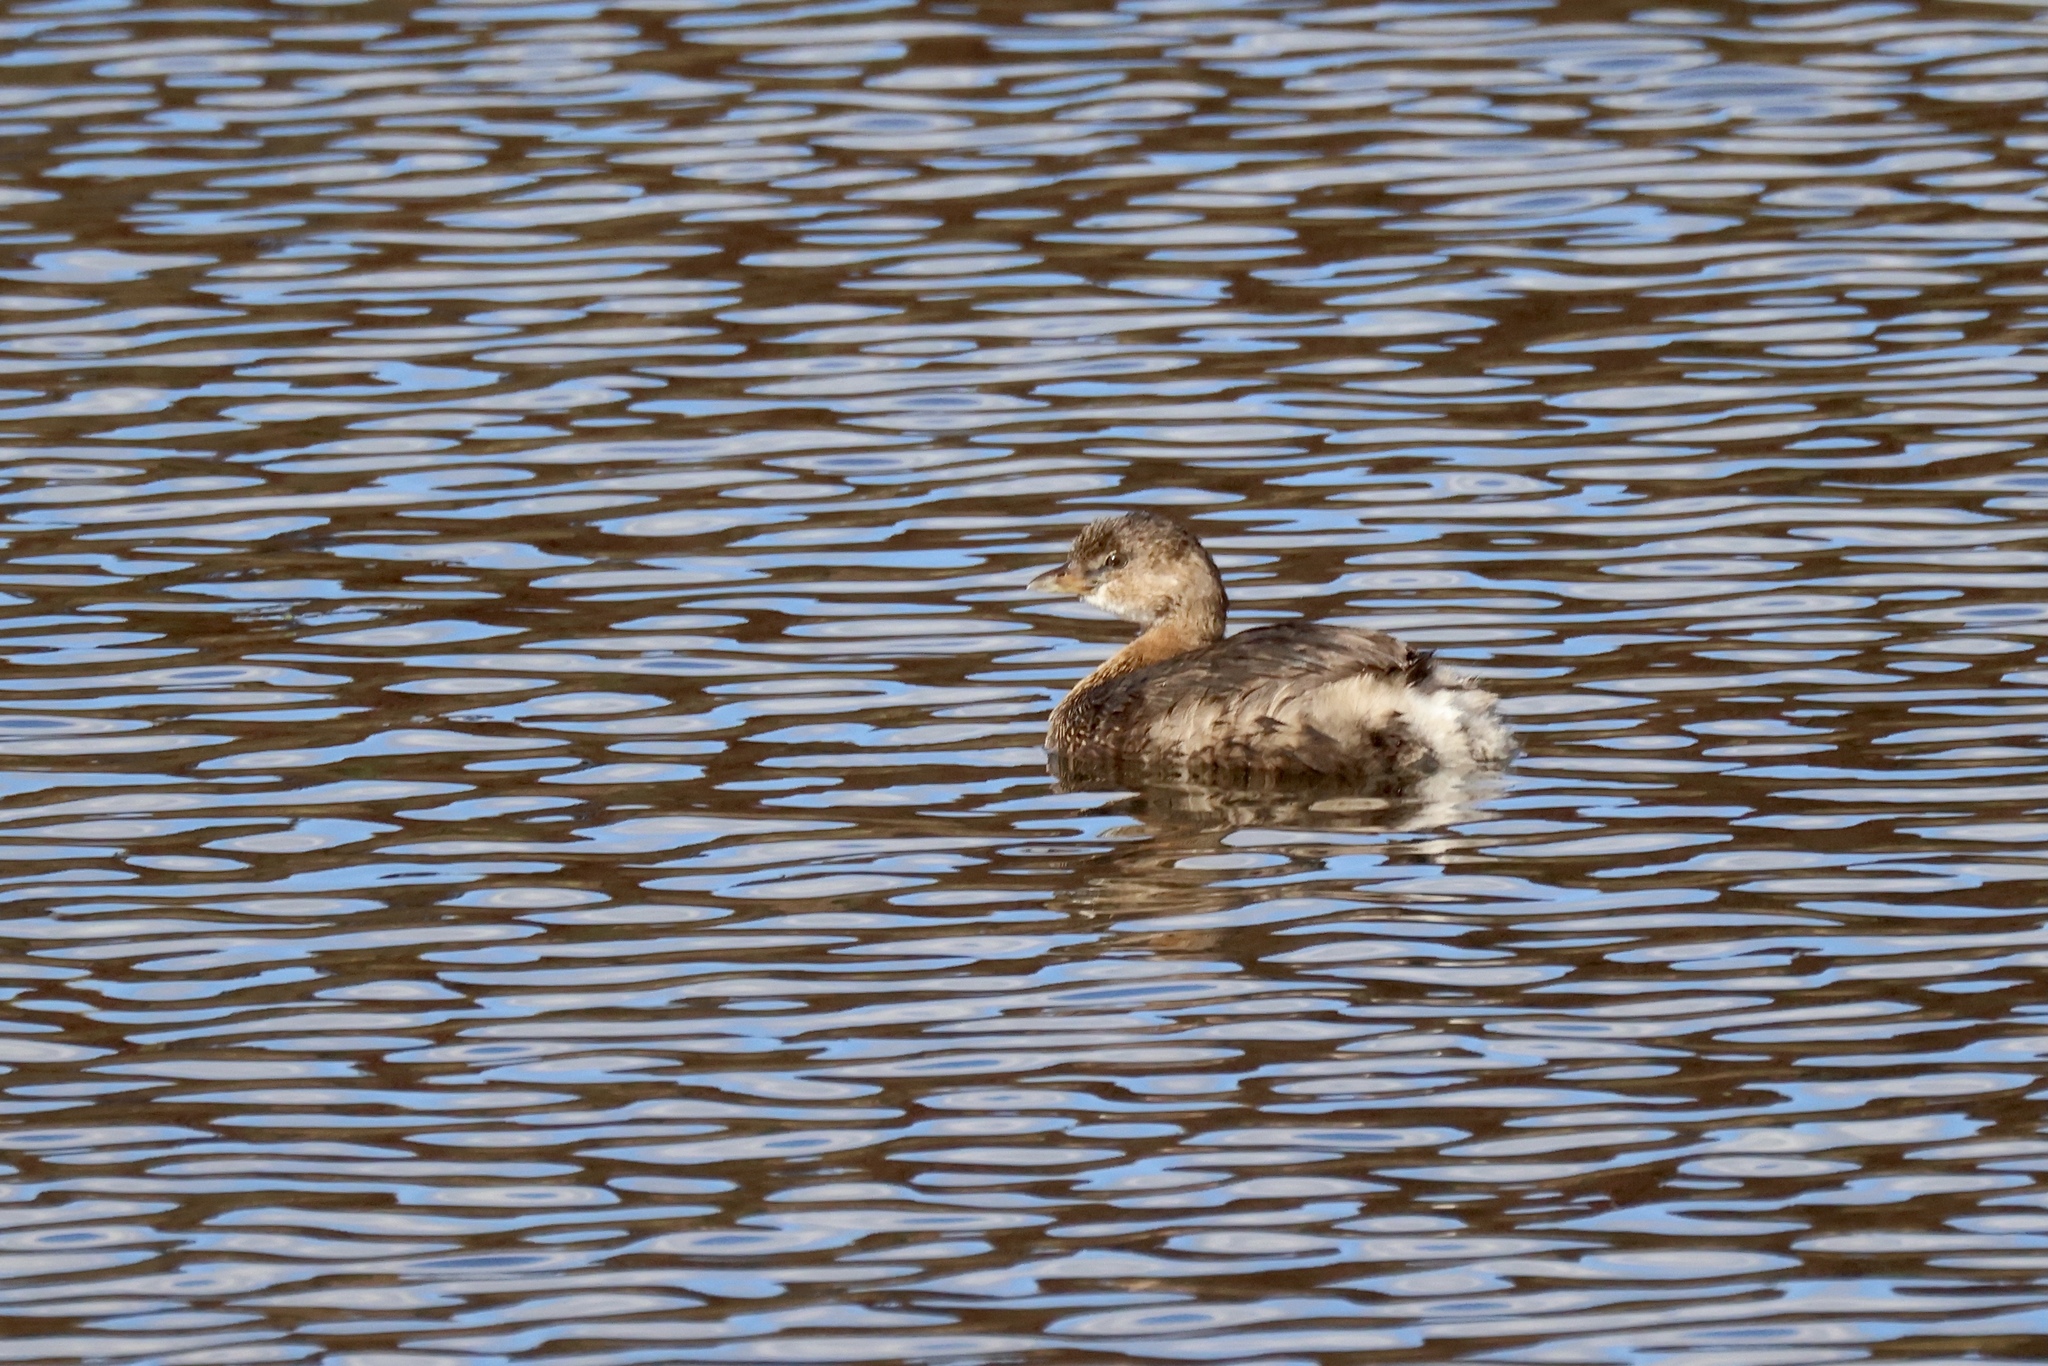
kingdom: Animalia
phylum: Chordata
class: Aves
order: Podicipediformes
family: Podicipedidae
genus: Podilymbus
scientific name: Podilymbus podiceps
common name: Pied-billed grebe
